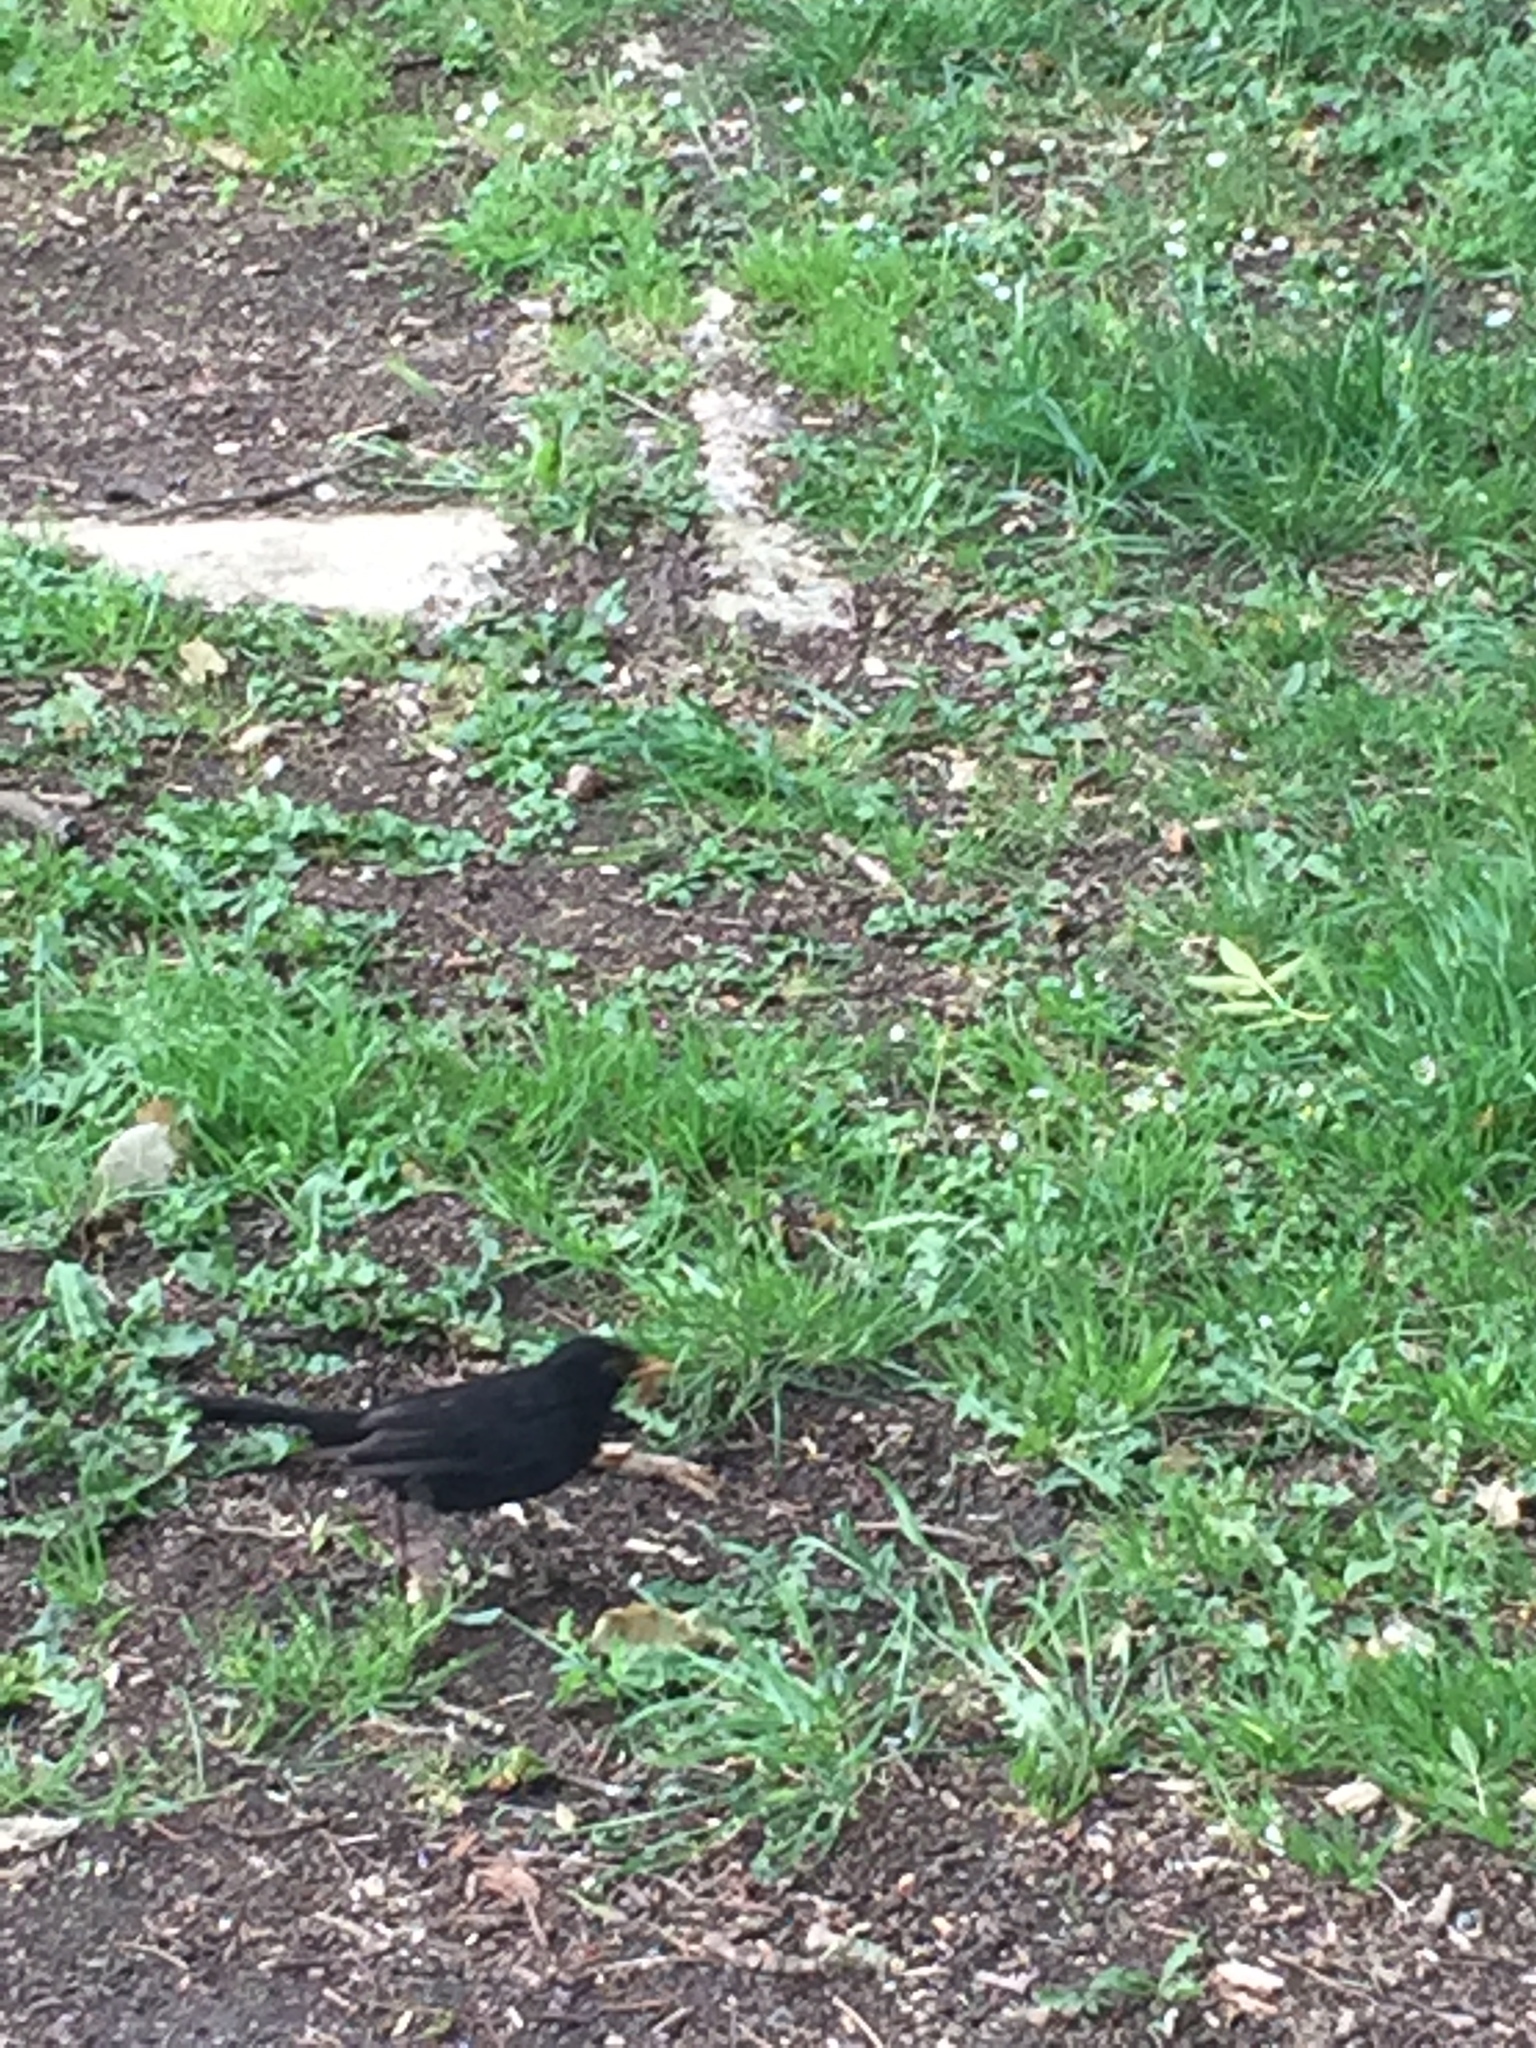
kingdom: Animalia
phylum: Chordata
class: Aves
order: Passeriformes
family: Turdidae
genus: Turdus
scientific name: Turdus merula
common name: Common blackbird
